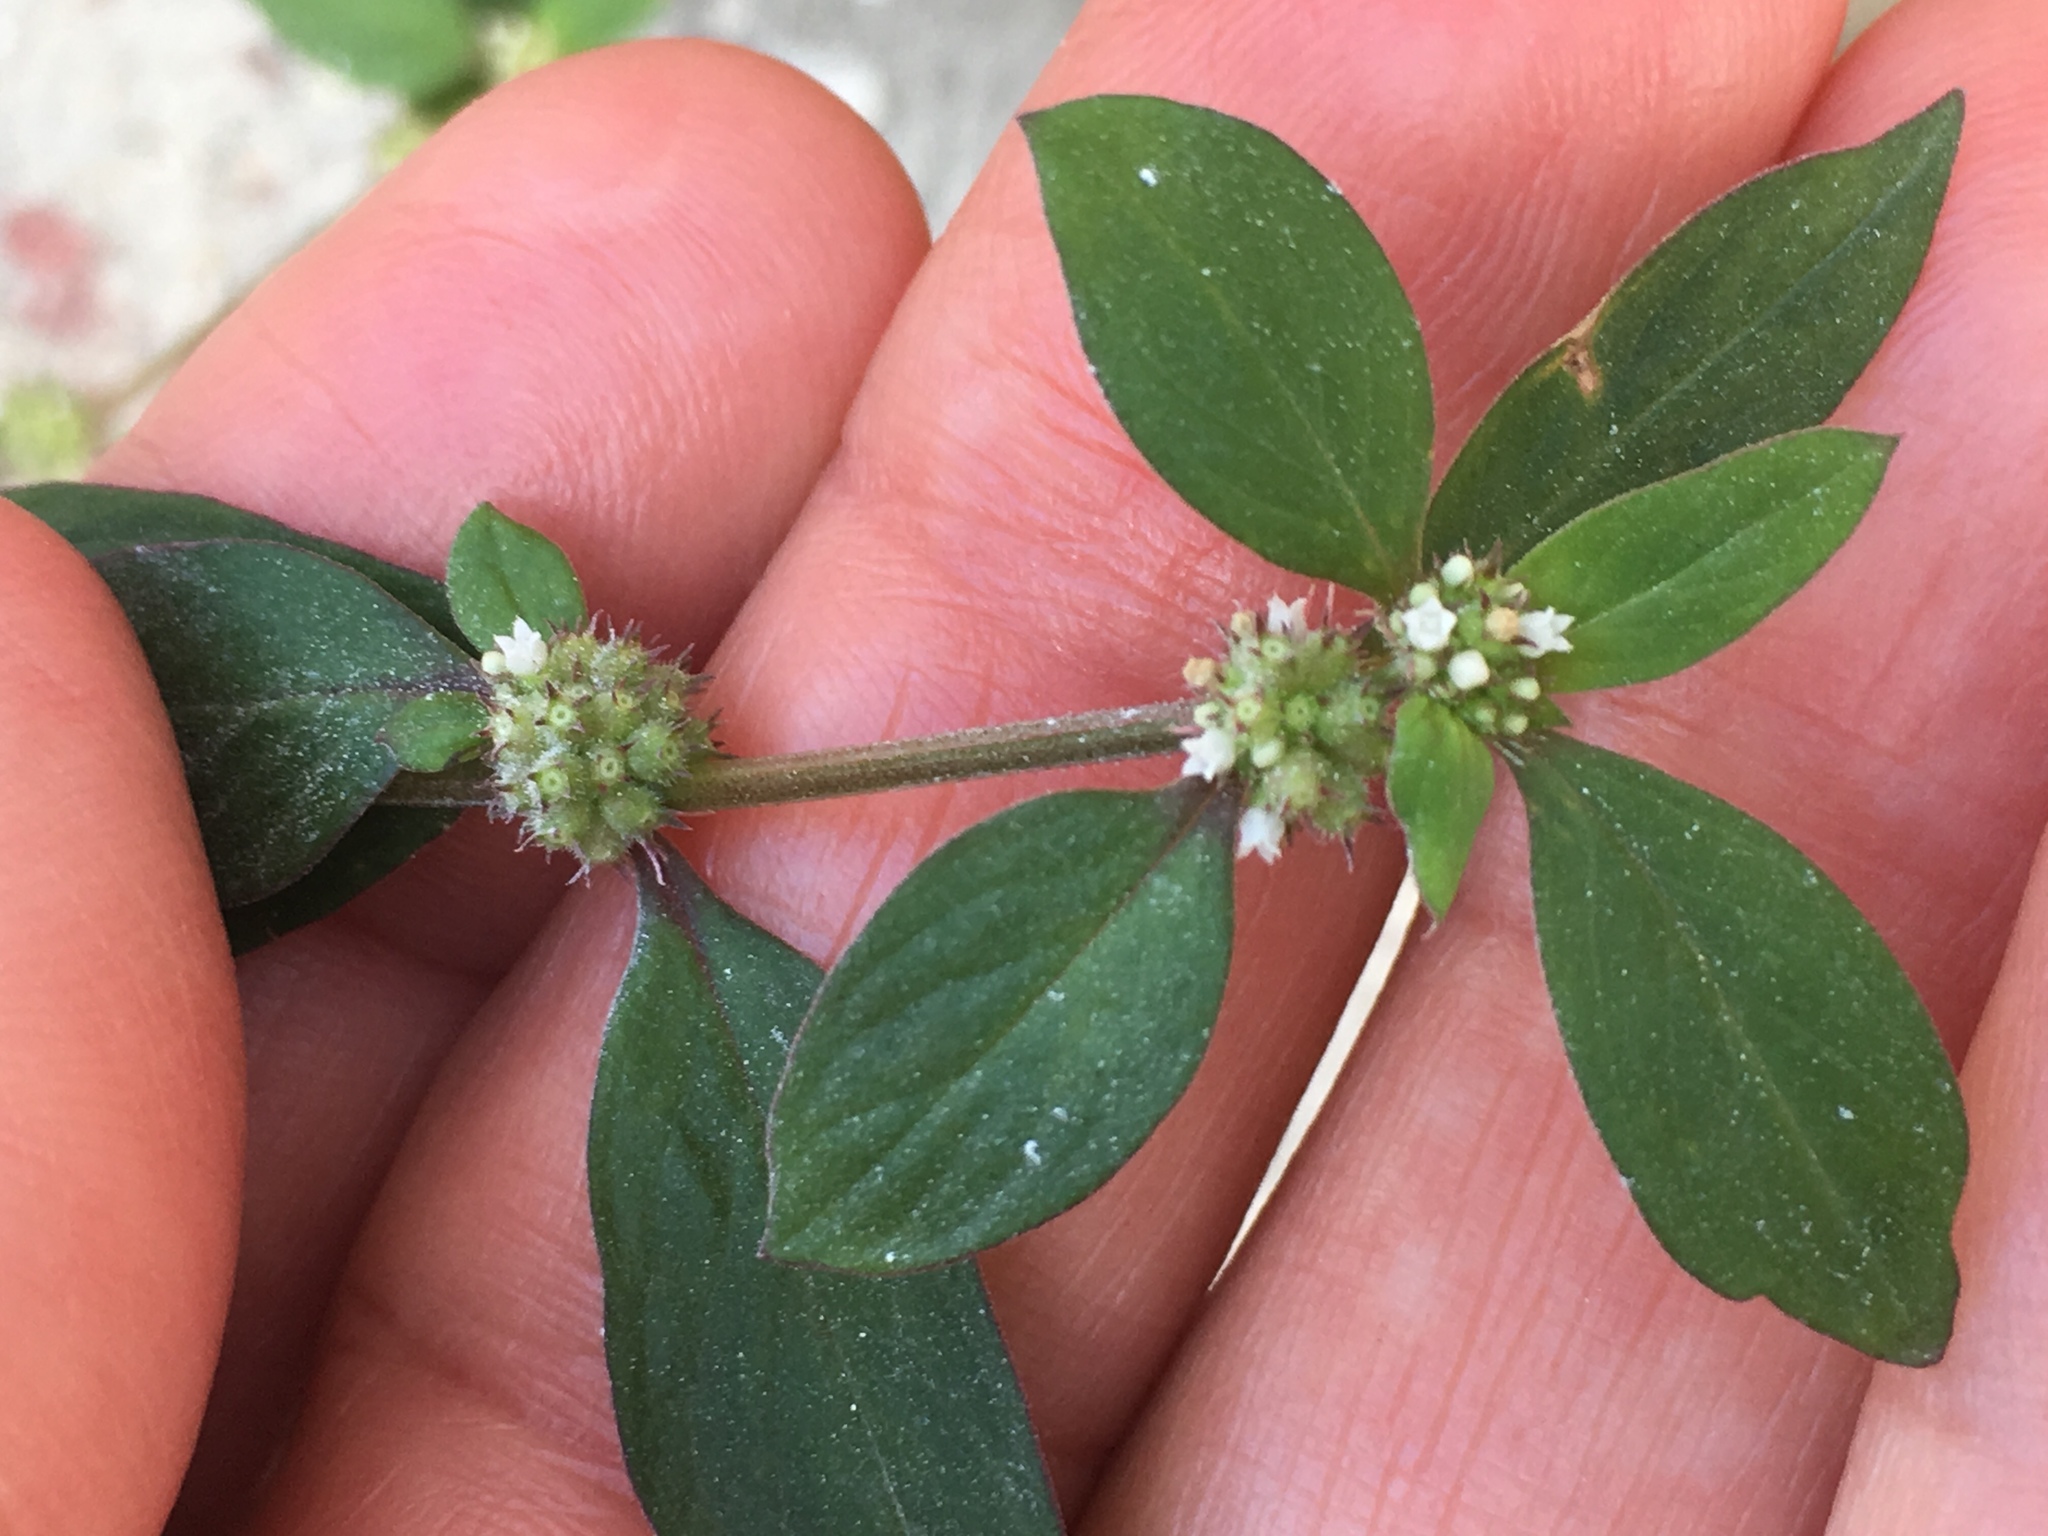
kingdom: Plantae
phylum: Tracheophyta
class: Magnoliopsida
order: Gentianales
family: Rubiaceae
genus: Spermacoce
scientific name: Spermacoce latifolia
